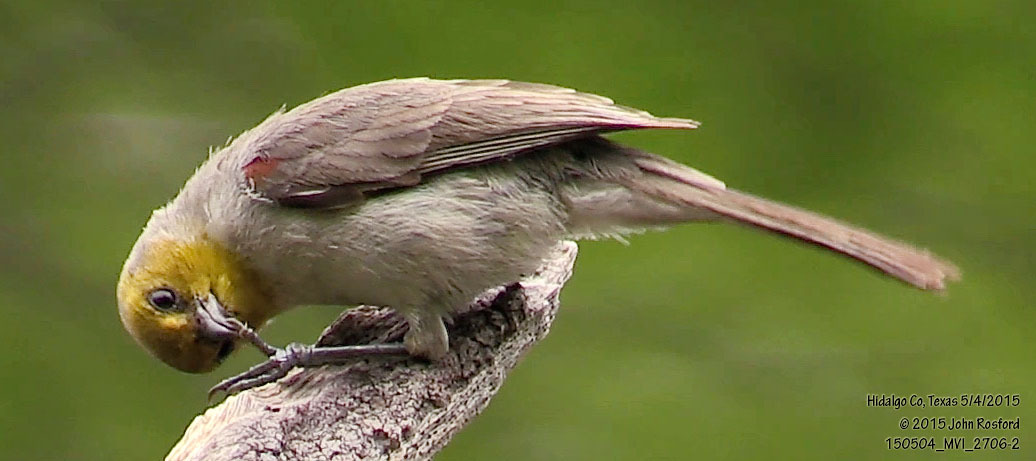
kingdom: Animalia
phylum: Chordata
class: Aves
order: Passeriformes
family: Remizidae
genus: Auriparus
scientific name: Auriparus flaviceps
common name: Verdin
